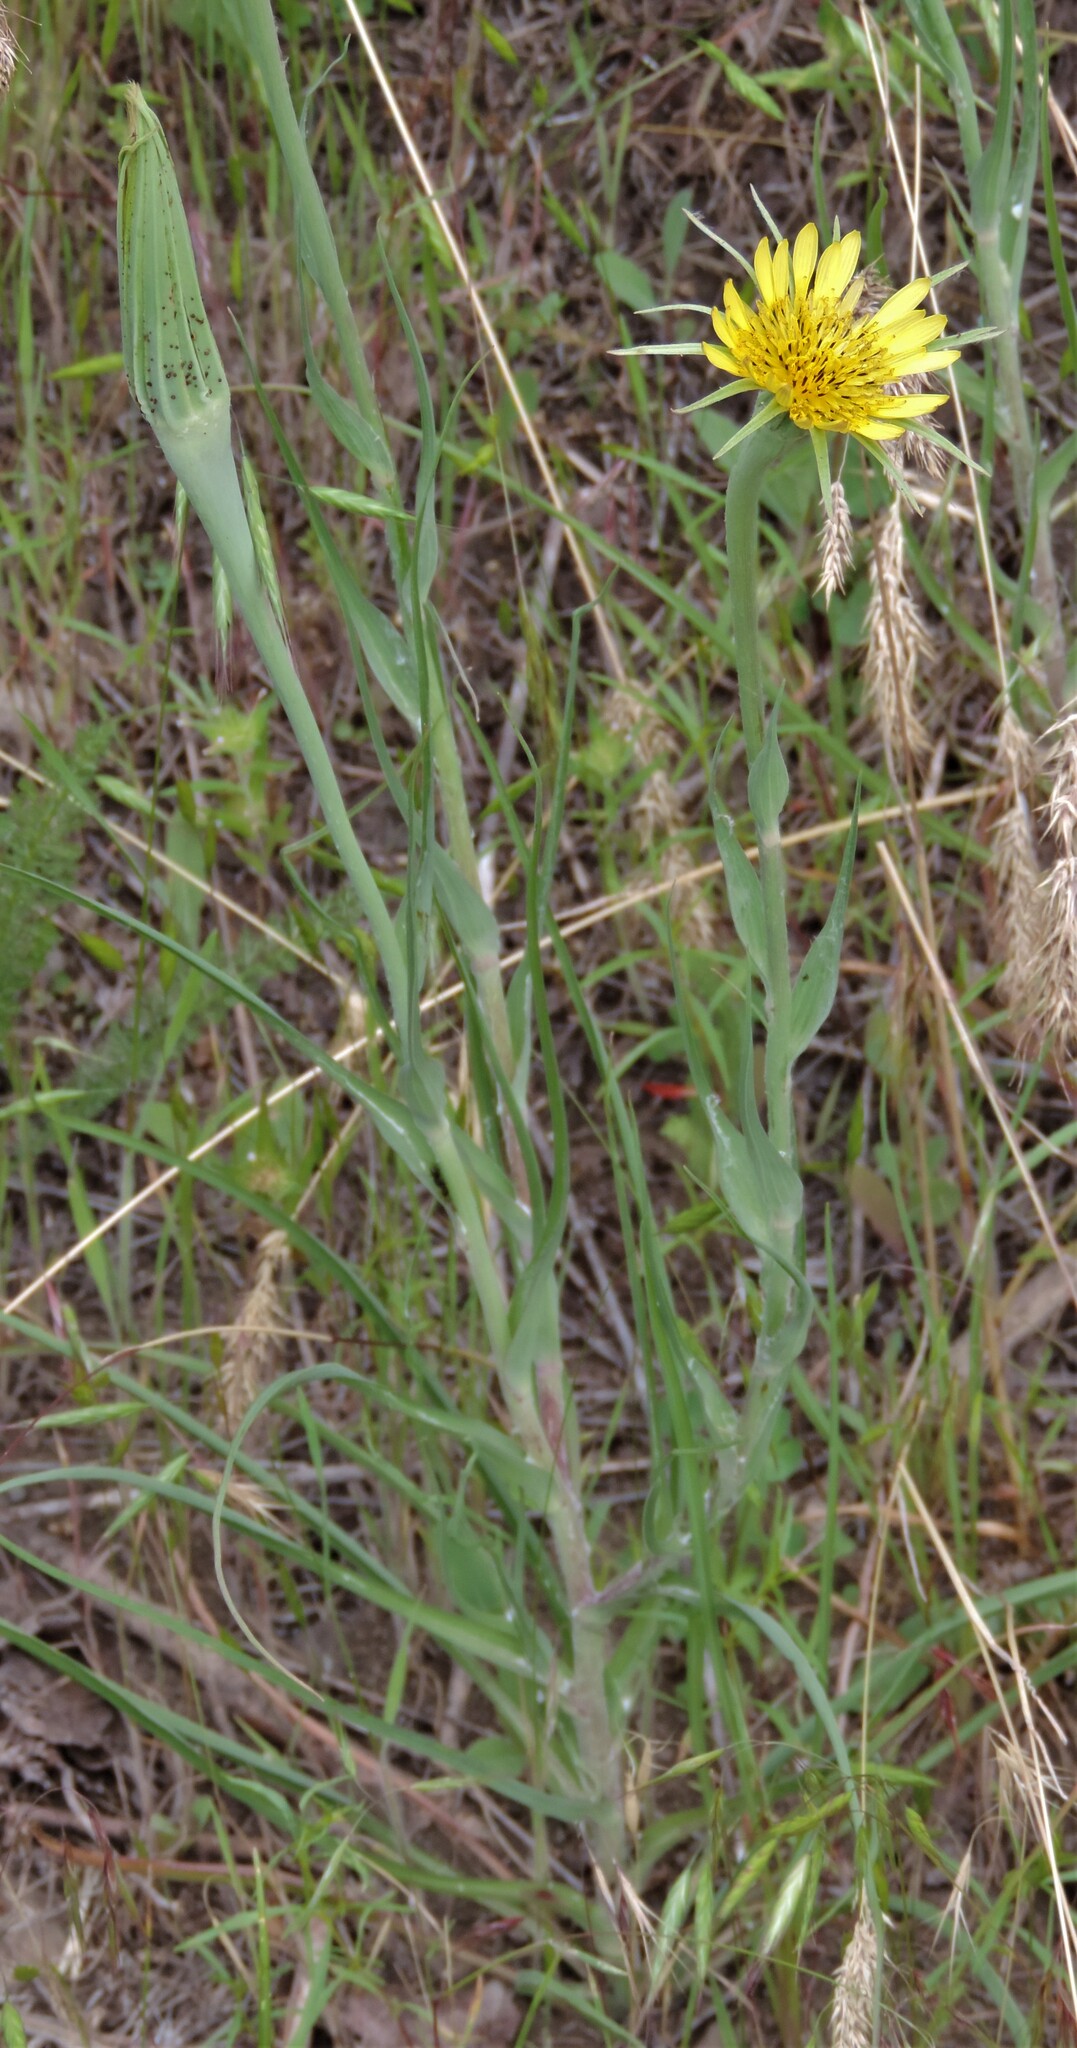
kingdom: Plantae
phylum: Tracheophyta
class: Magnoliopsida
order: Asterales
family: Asteraceae
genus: Tragopogon
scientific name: Tragopogon dubius
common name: Yellow salsify
